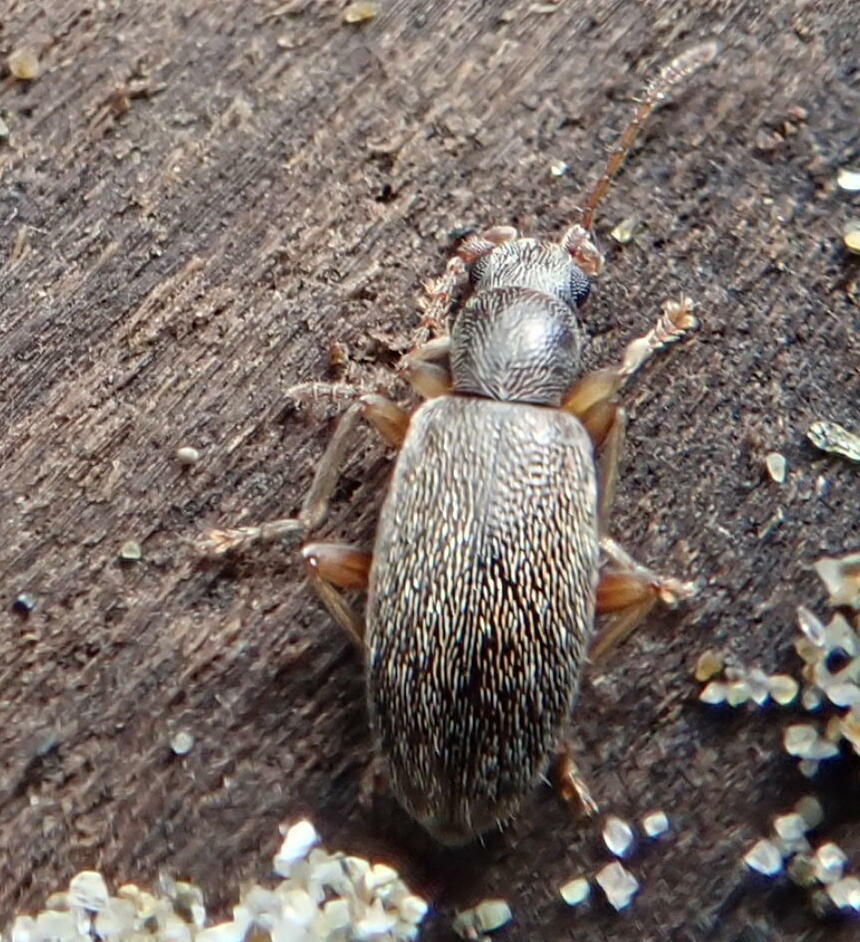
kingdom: Animalia
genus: Lagrioda
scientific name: Lagrioda brounii
